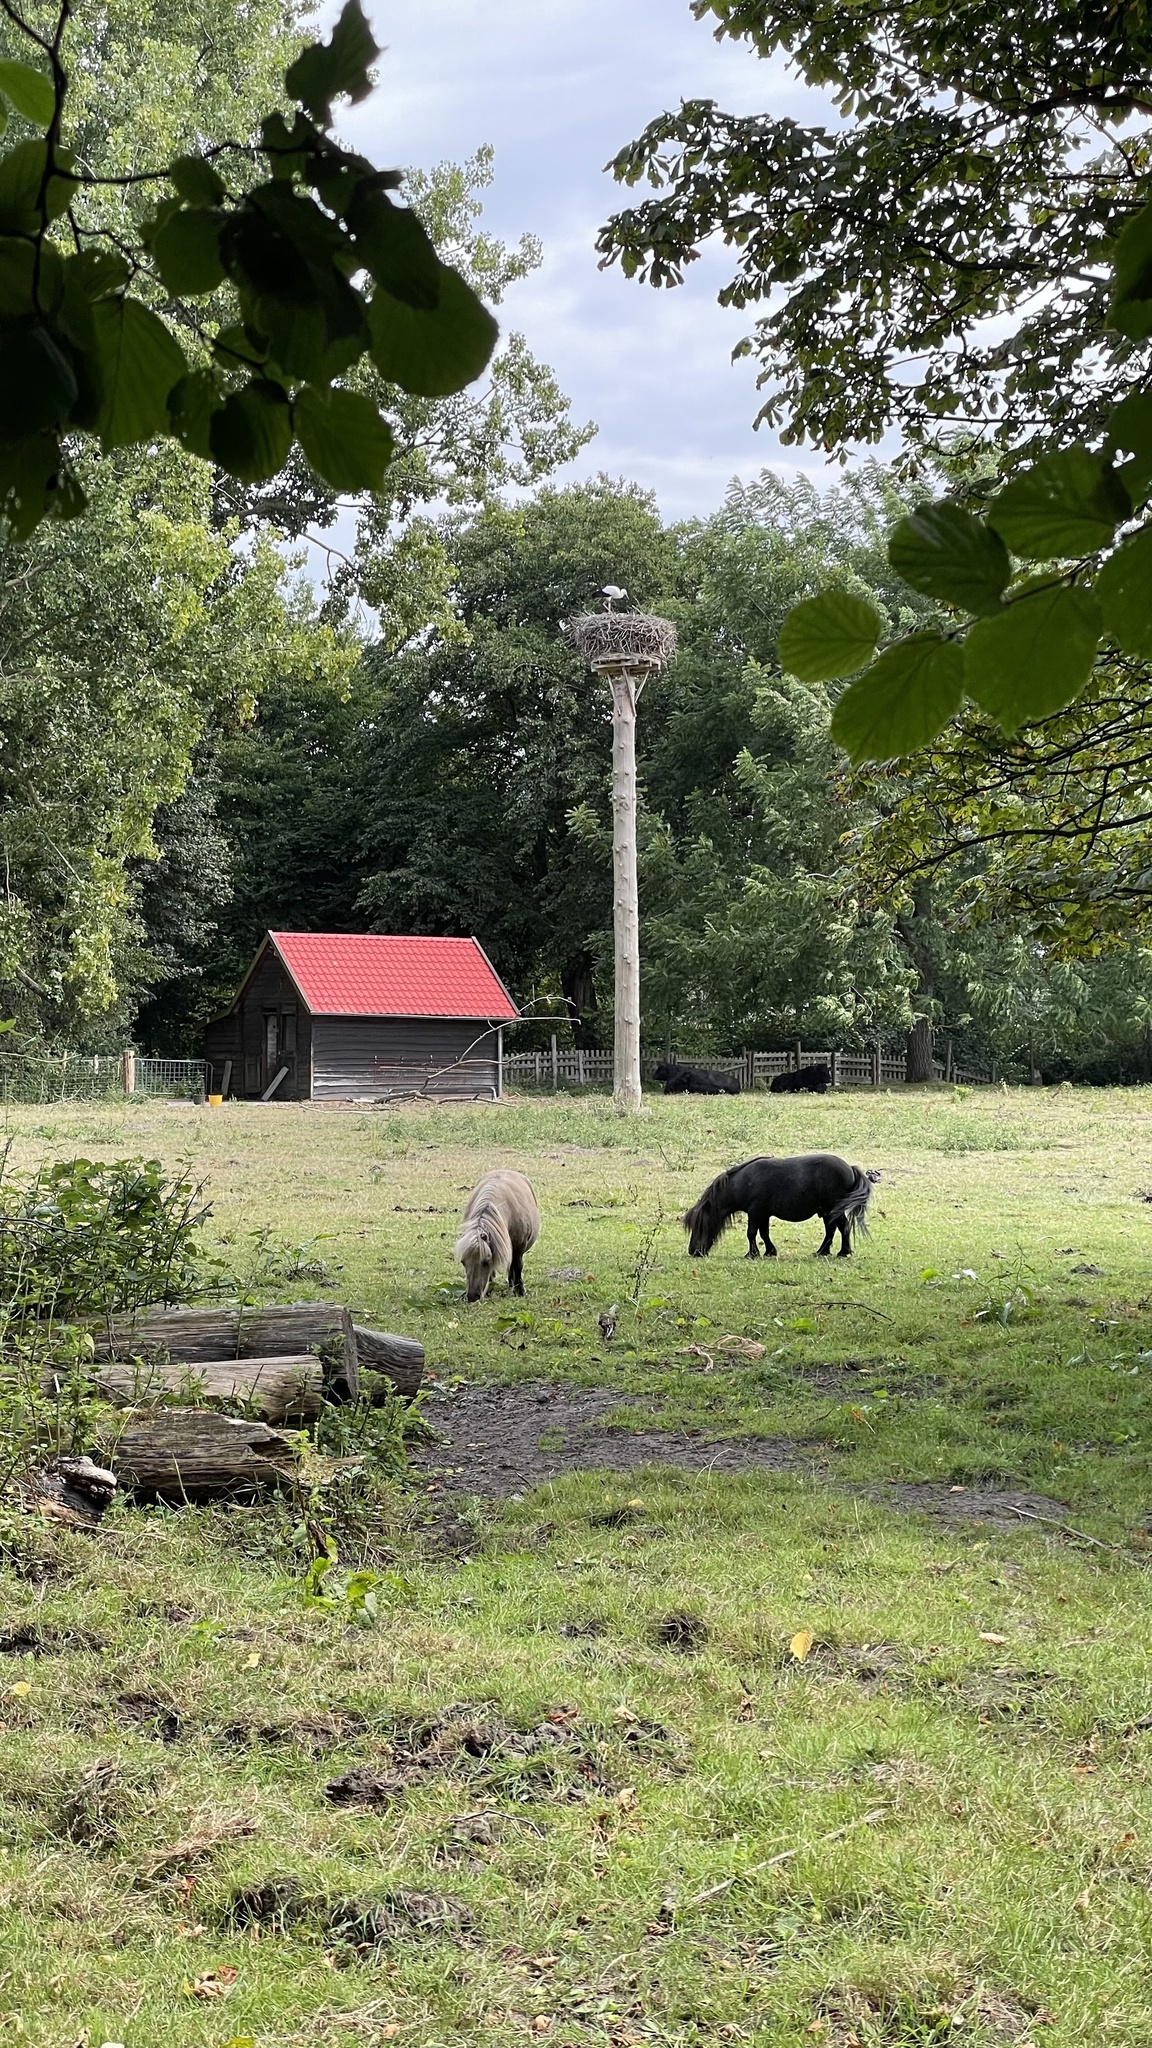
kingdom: Animalia
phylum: Chordata
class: Aves
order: Ciconiiformes
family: Ciconiidae
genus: Ciconia
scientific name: Ciconia ciconia
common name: White stork
